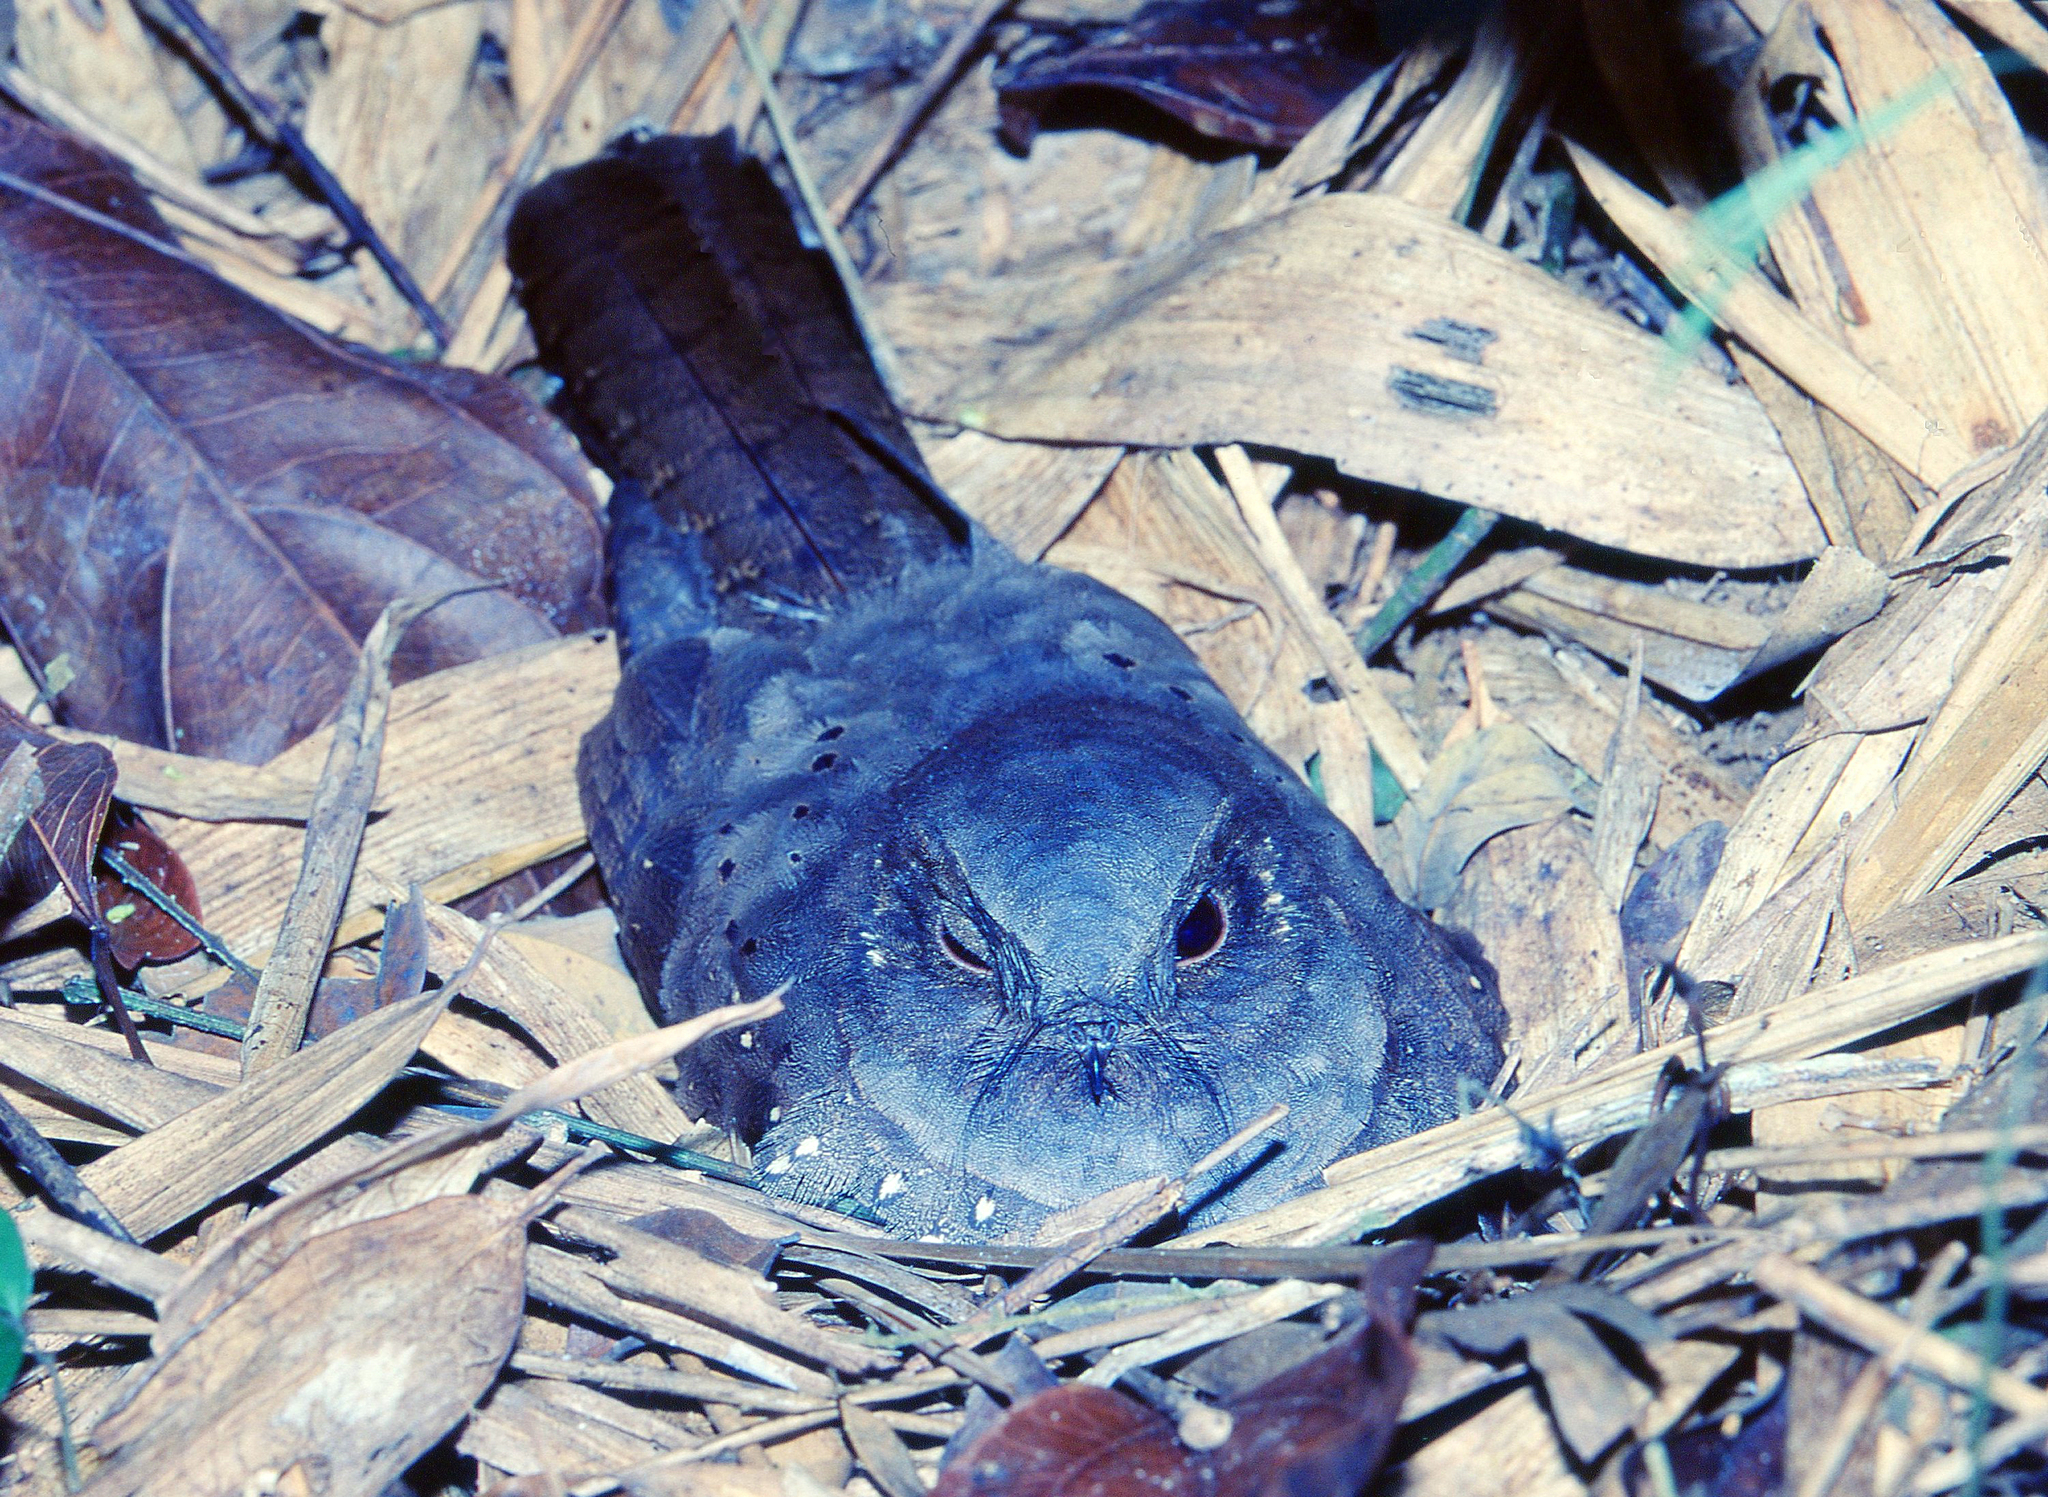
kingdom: Animalia
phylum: Chordata
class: Aves
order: Caprimulgiformes
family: Caprimulgidae
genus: Nyctiphrynus
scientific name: Nyctiphrynus ocellatus
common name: Ocellated poorwill
